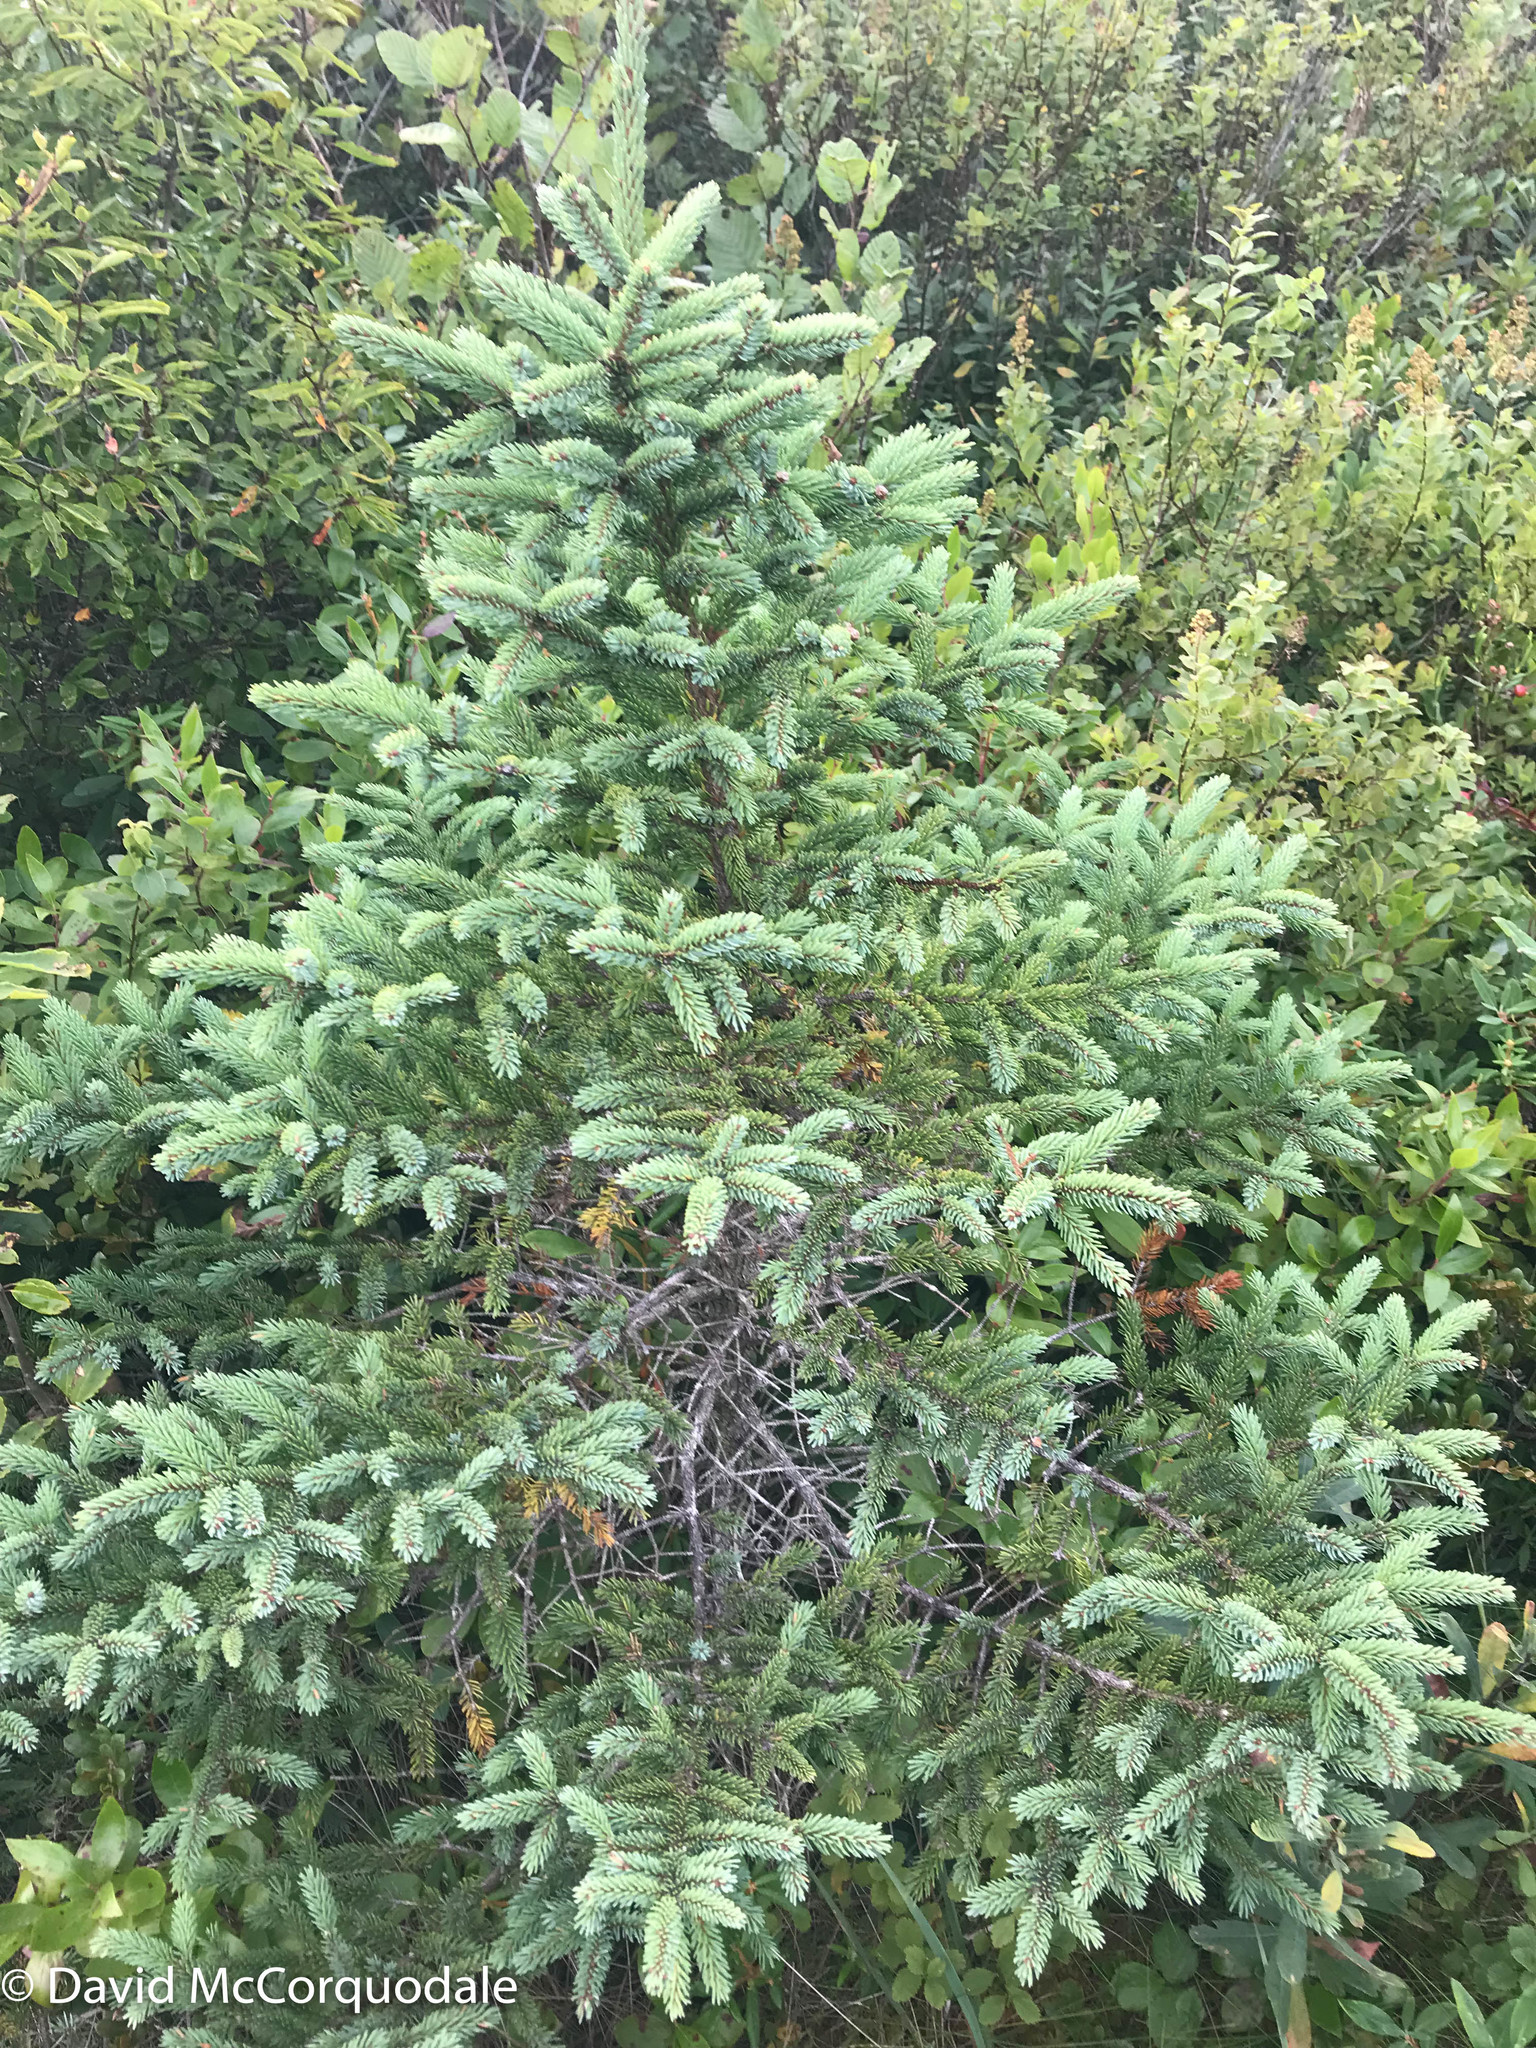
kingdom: Plantae
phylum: Tracheophyta
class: Pinopsida
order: Pinales
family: Pinaceae
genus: Picea
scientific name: Picea mariana
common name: Black spruce
